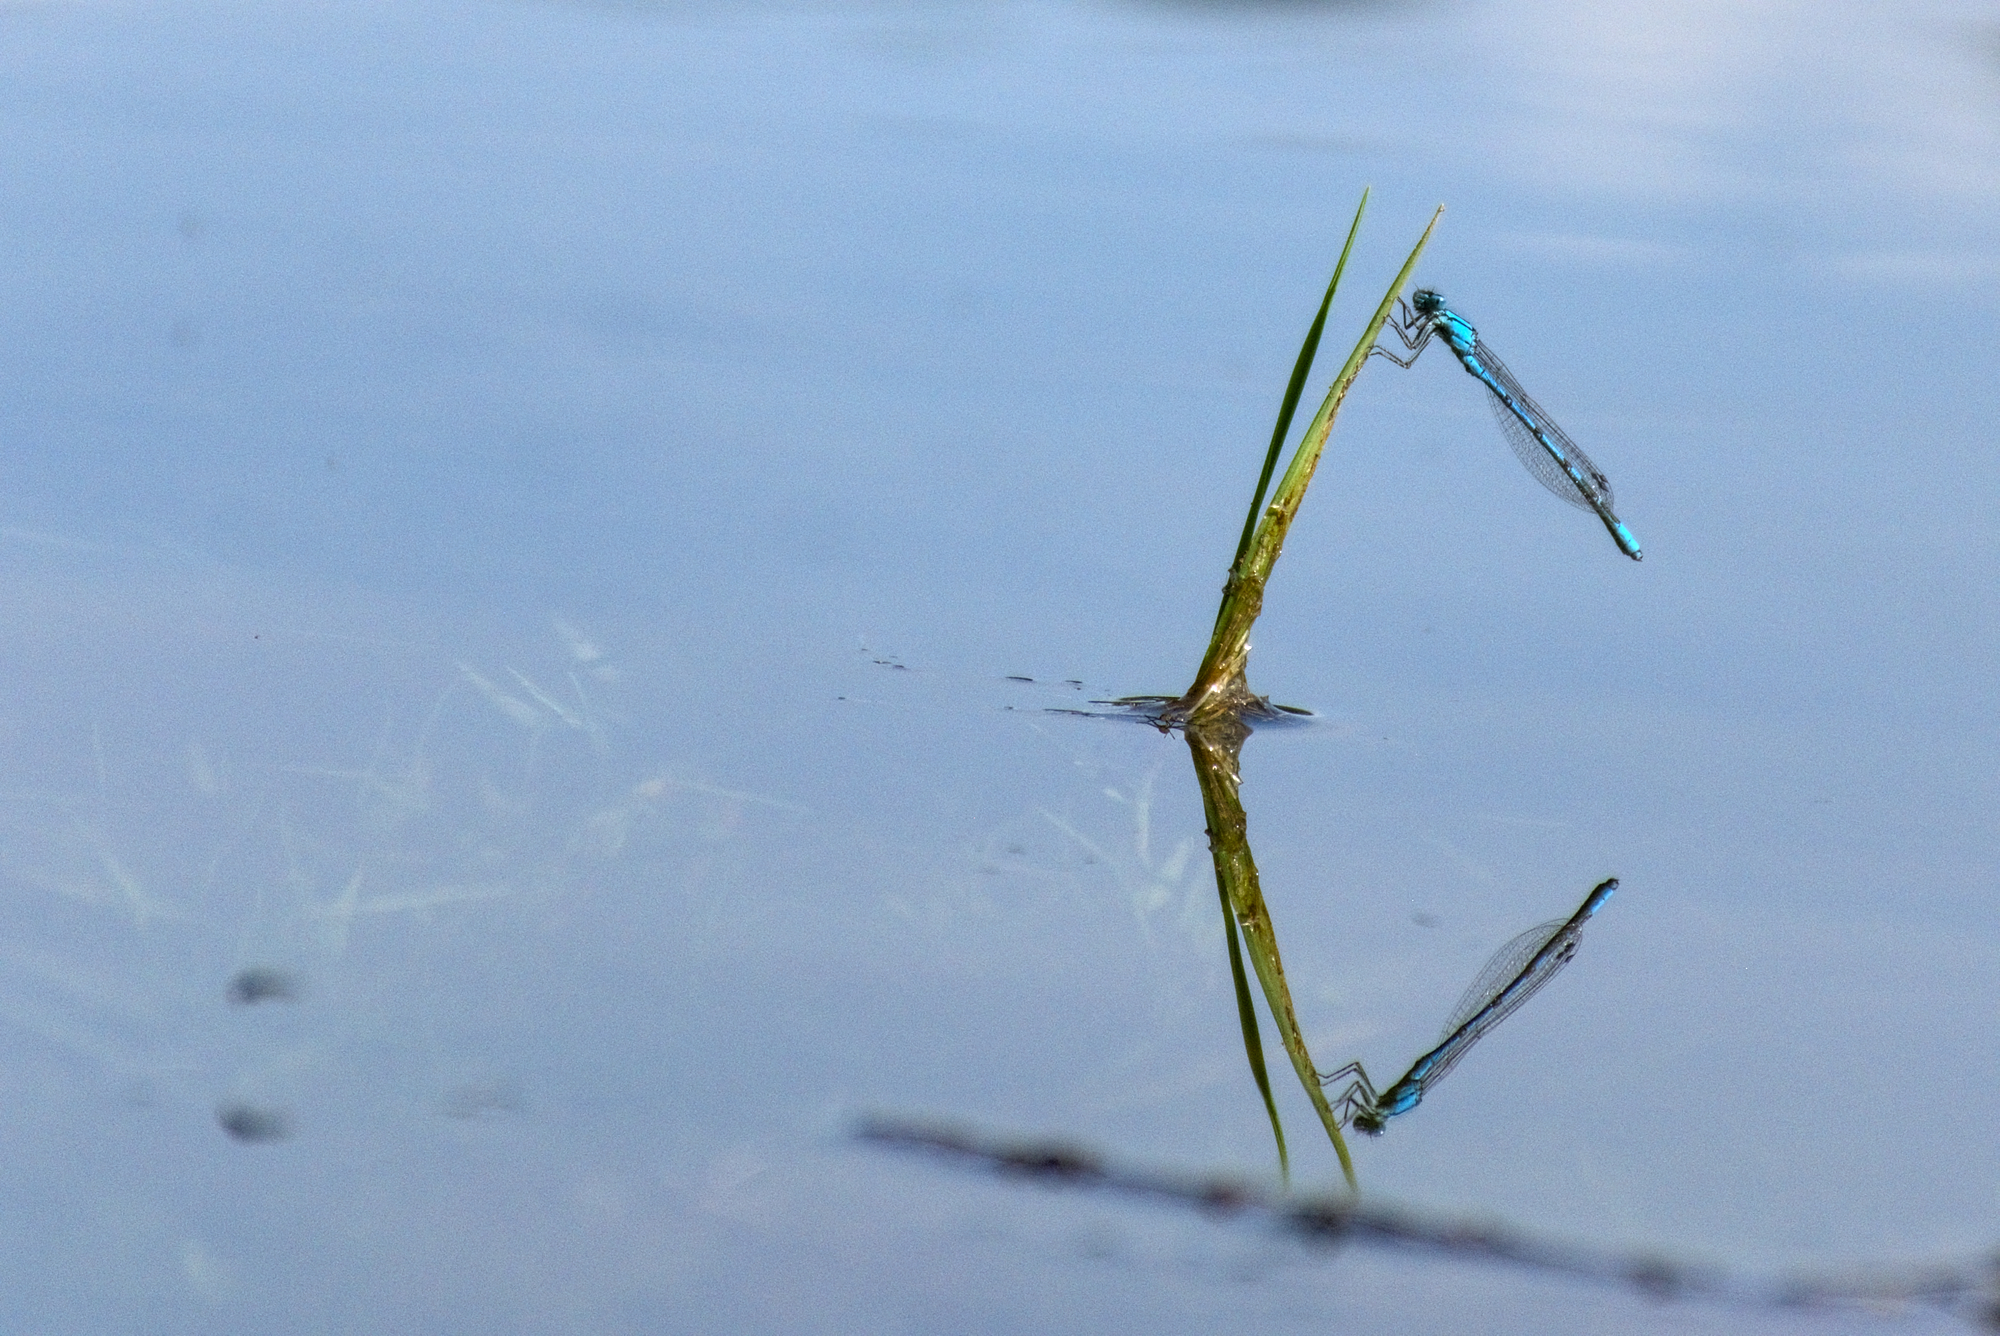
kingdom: Animalia
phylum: Arthropoda
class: Insecta
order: Odonata
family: Coenagrionidae
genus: Enallagma
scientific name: Enallagma cyathigerum
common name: Common blue damselfly
